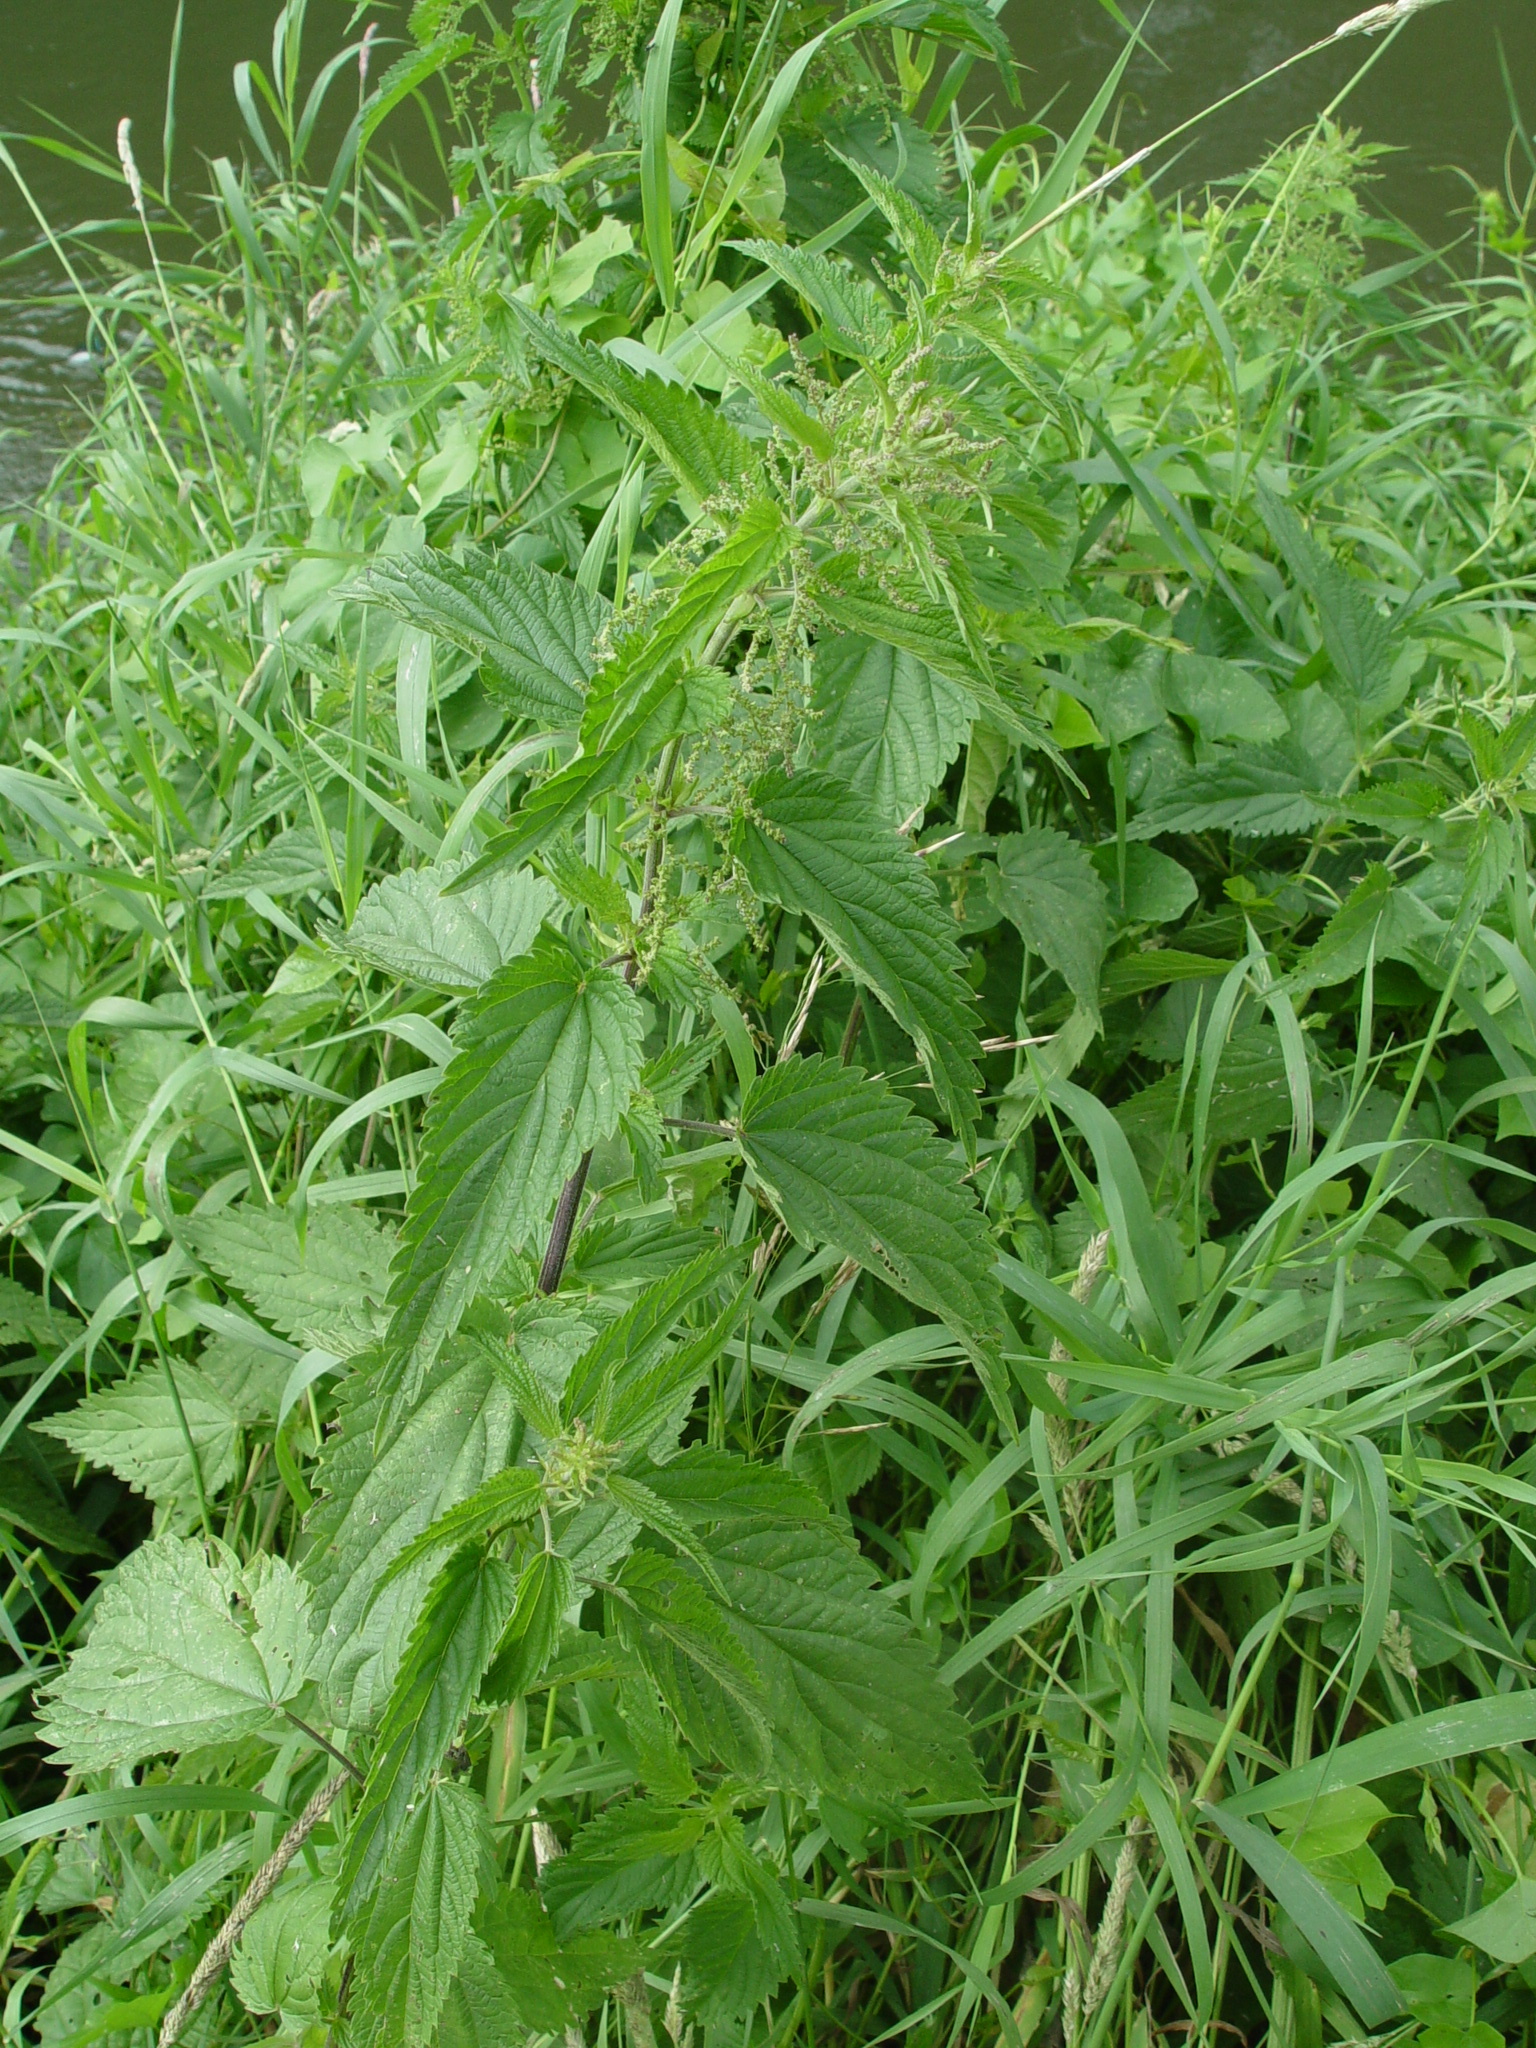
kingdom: Plantae
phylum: Tracheophyta
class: Magnoliopsida
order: Rosales
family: Urticaceae
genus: Urtica
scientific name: Urtica dioica
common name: Common nettle
